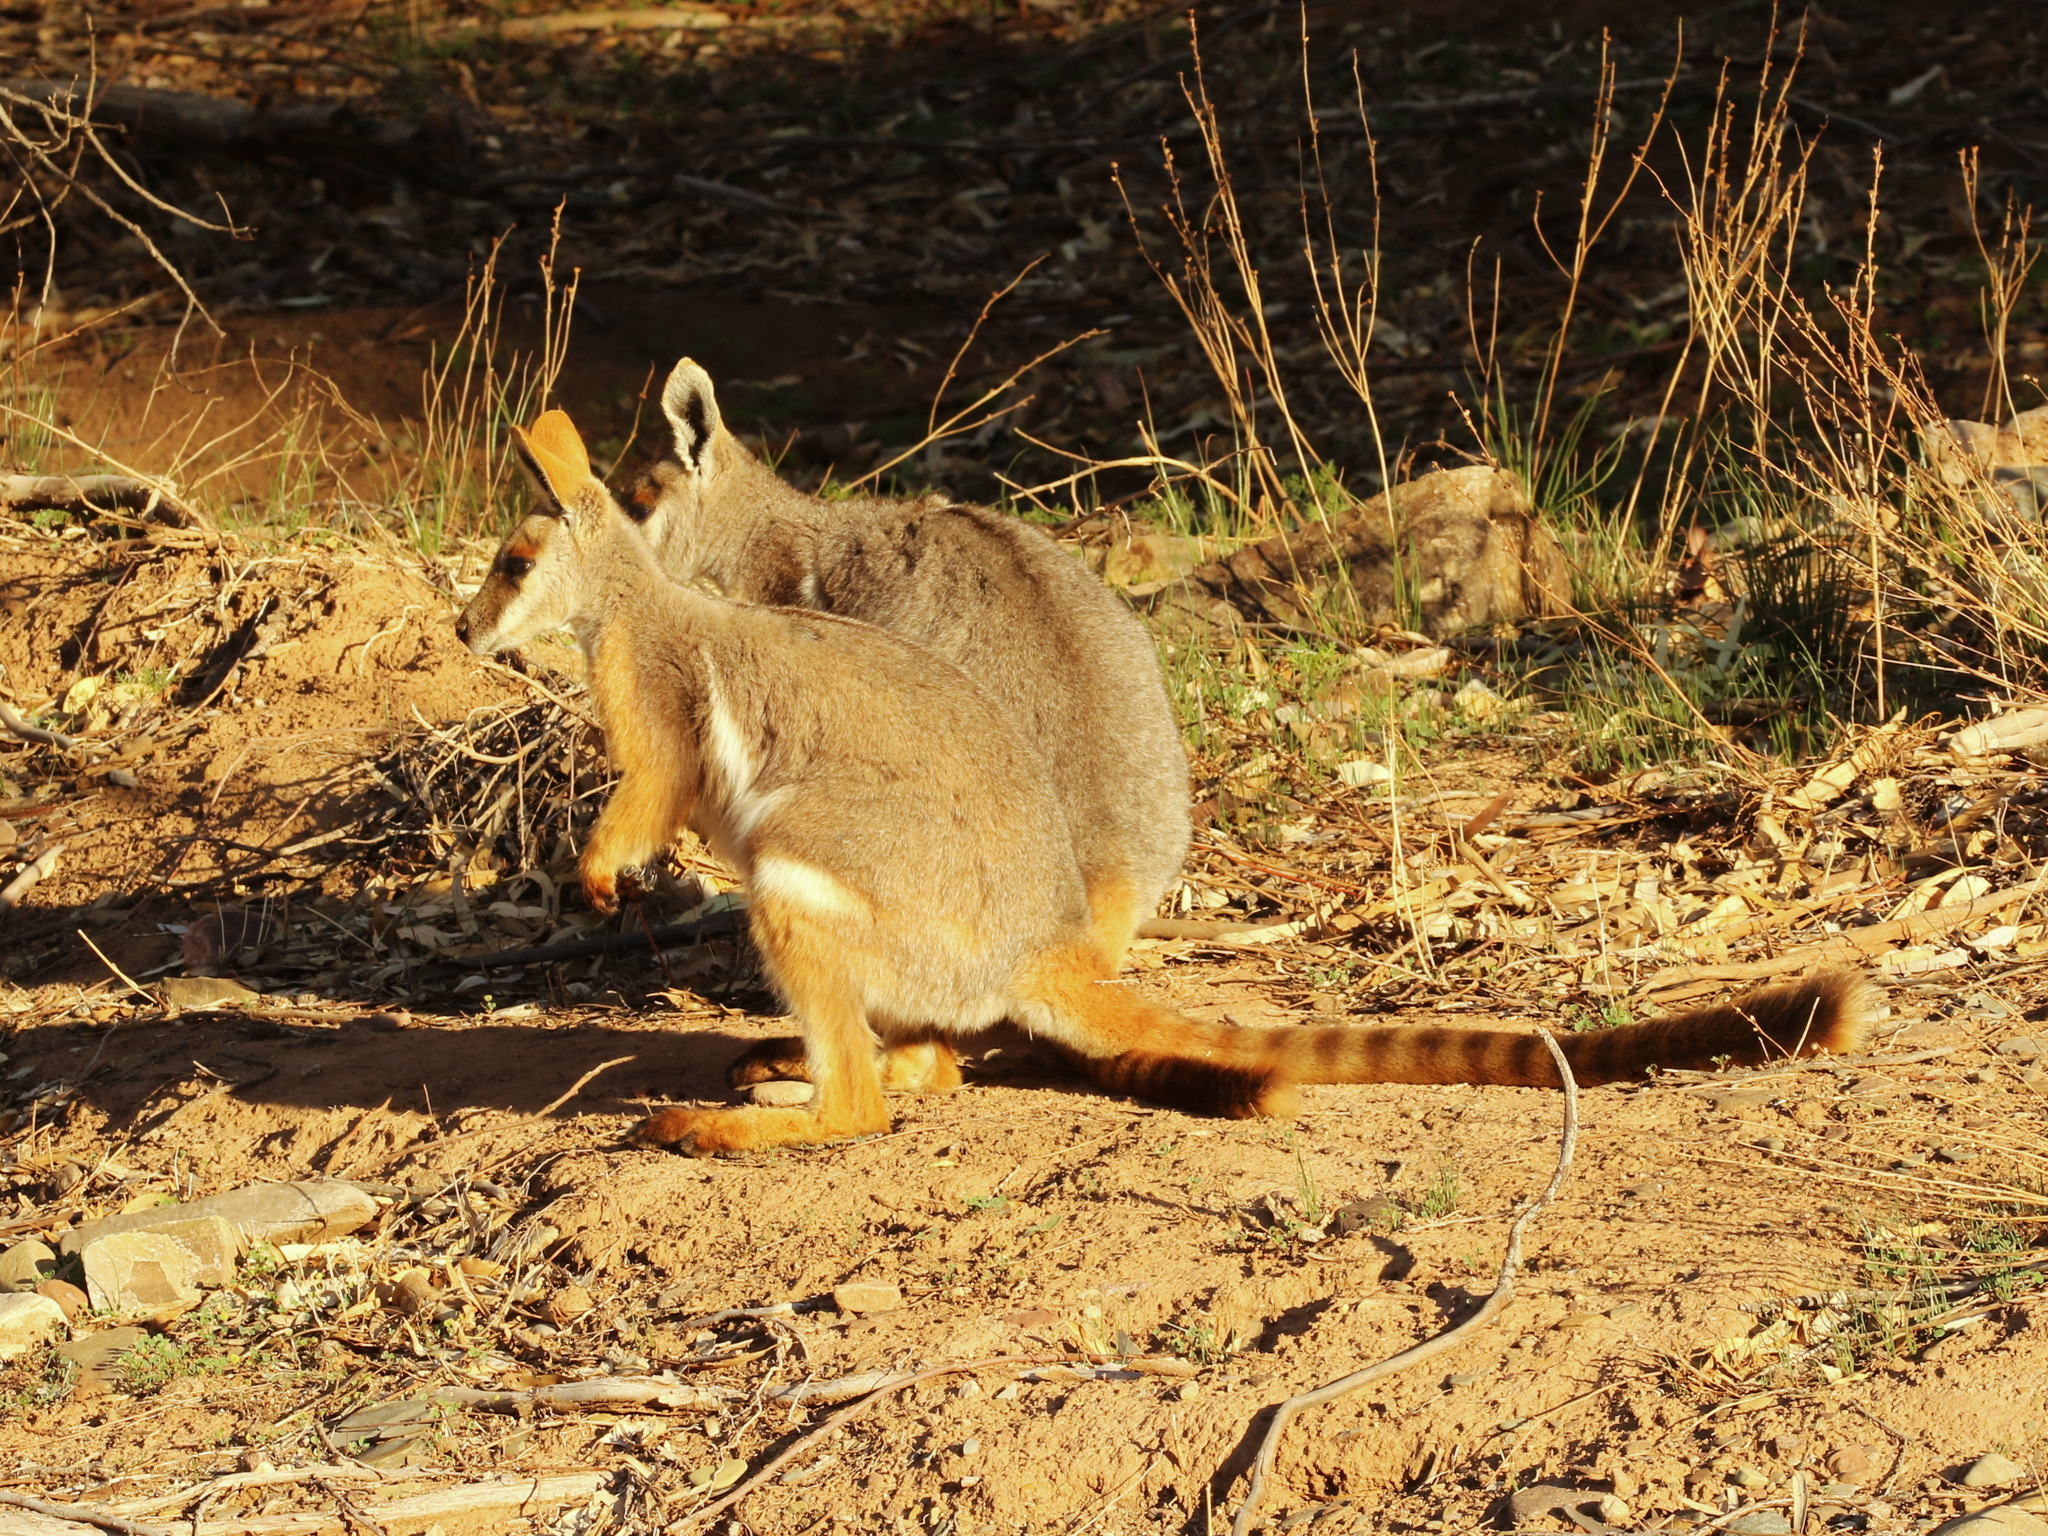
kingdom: Animalia
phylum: Chordata
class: Mammalia
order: Diprotodontia
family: Macropodidae
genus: Petrogale
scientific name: Petrogale xanthopus
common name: Yellow-footed rock-wallaby
